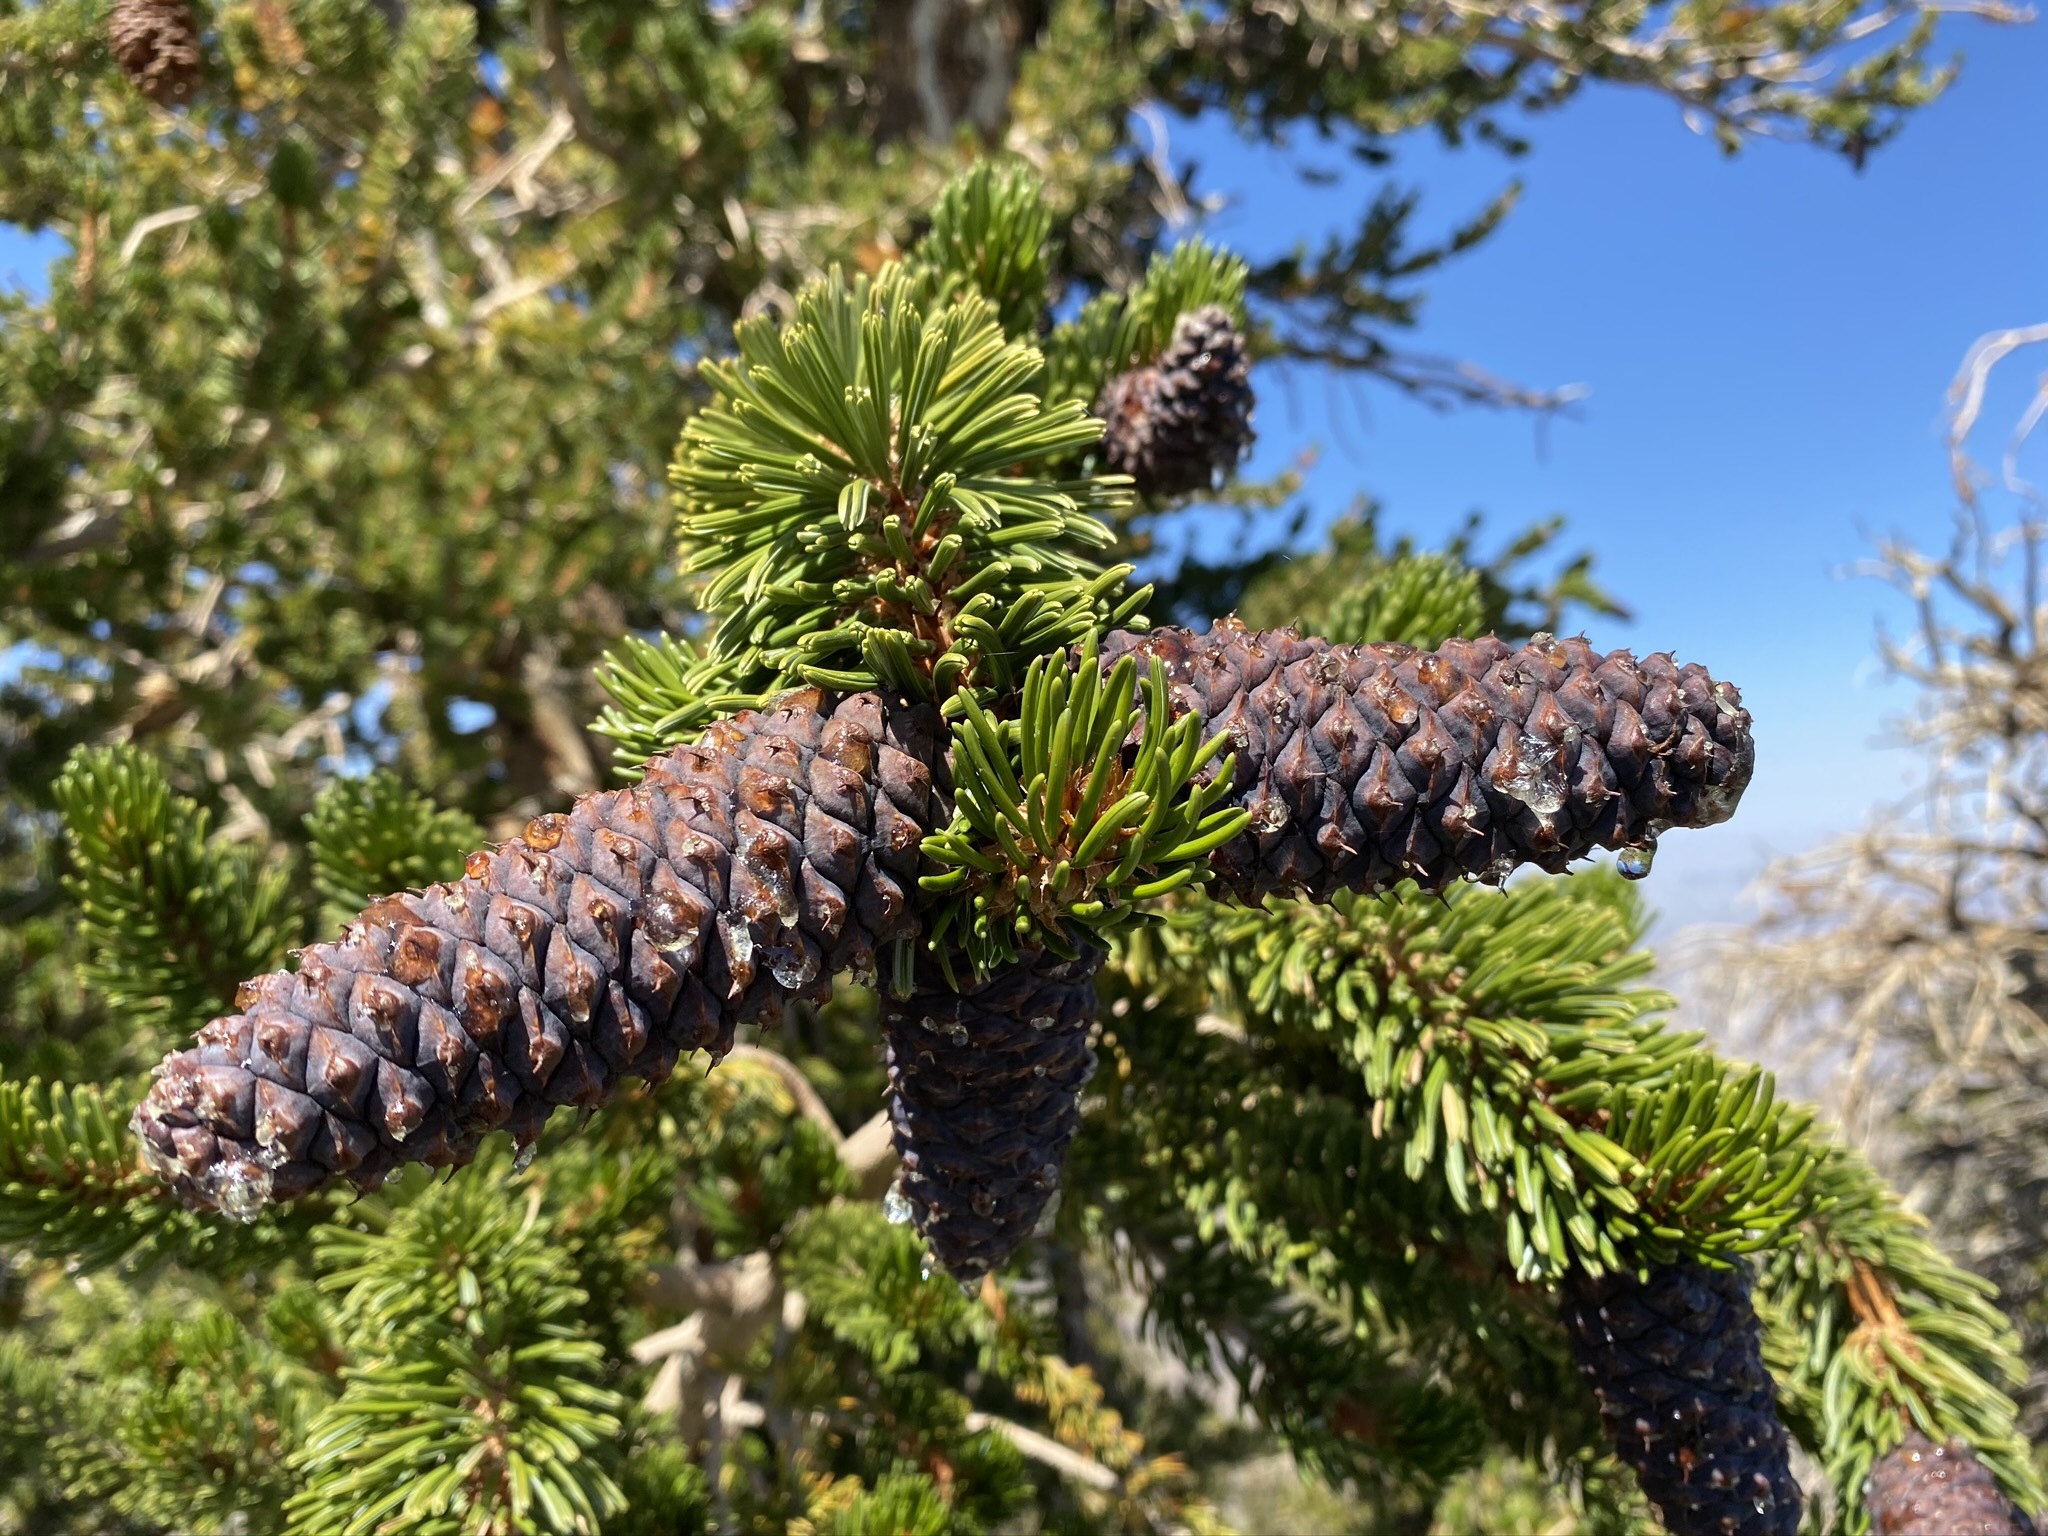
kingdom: Plantae
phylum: Tracheophyta
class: Pinopsida
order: Pinales
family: Pinaceae
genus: Pinus
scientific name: Pinus longaeva
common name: Intermountain bristlecone pine
